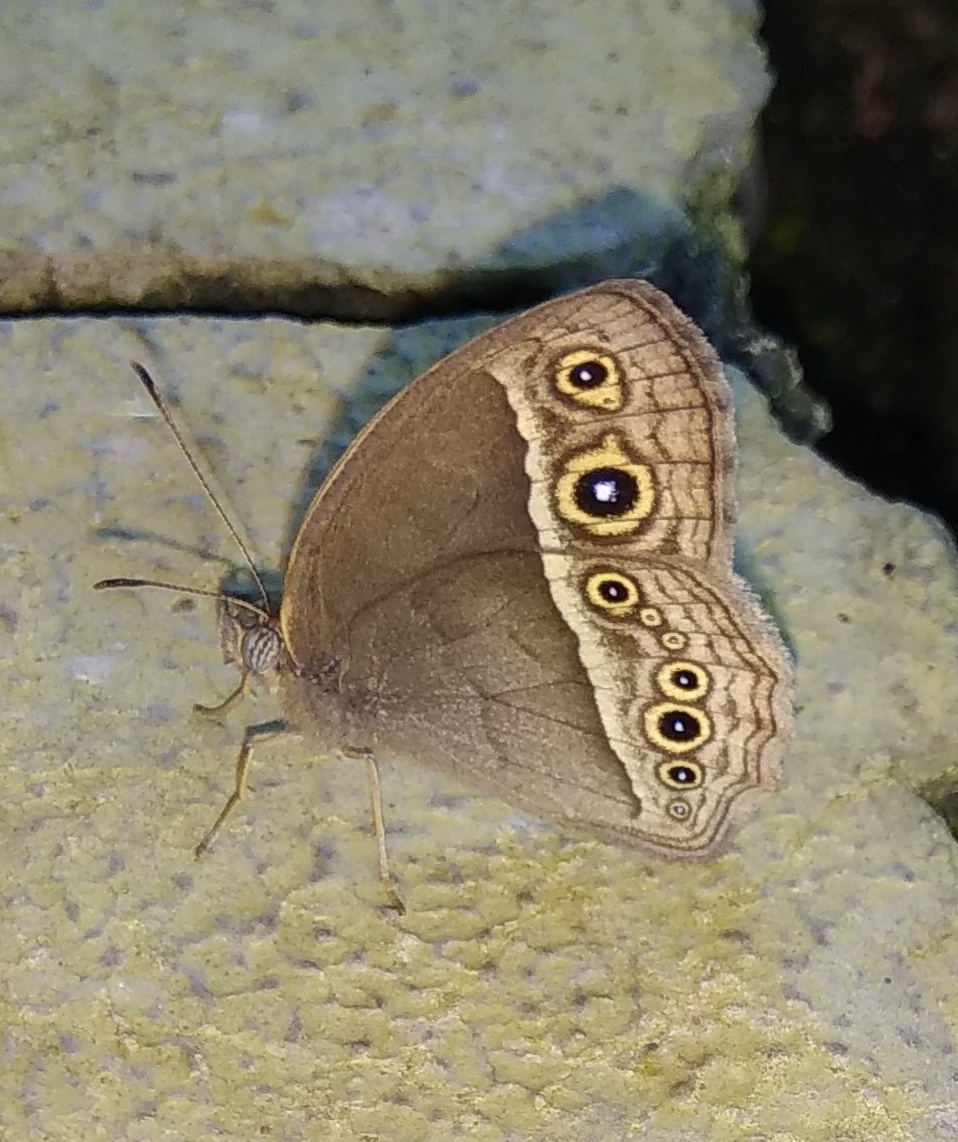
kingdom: Animalia
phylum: Arthropoda
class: Insecta
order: Lepidoptera
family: Nymphalidae
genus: Mycalesis
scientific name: Mycalesis
